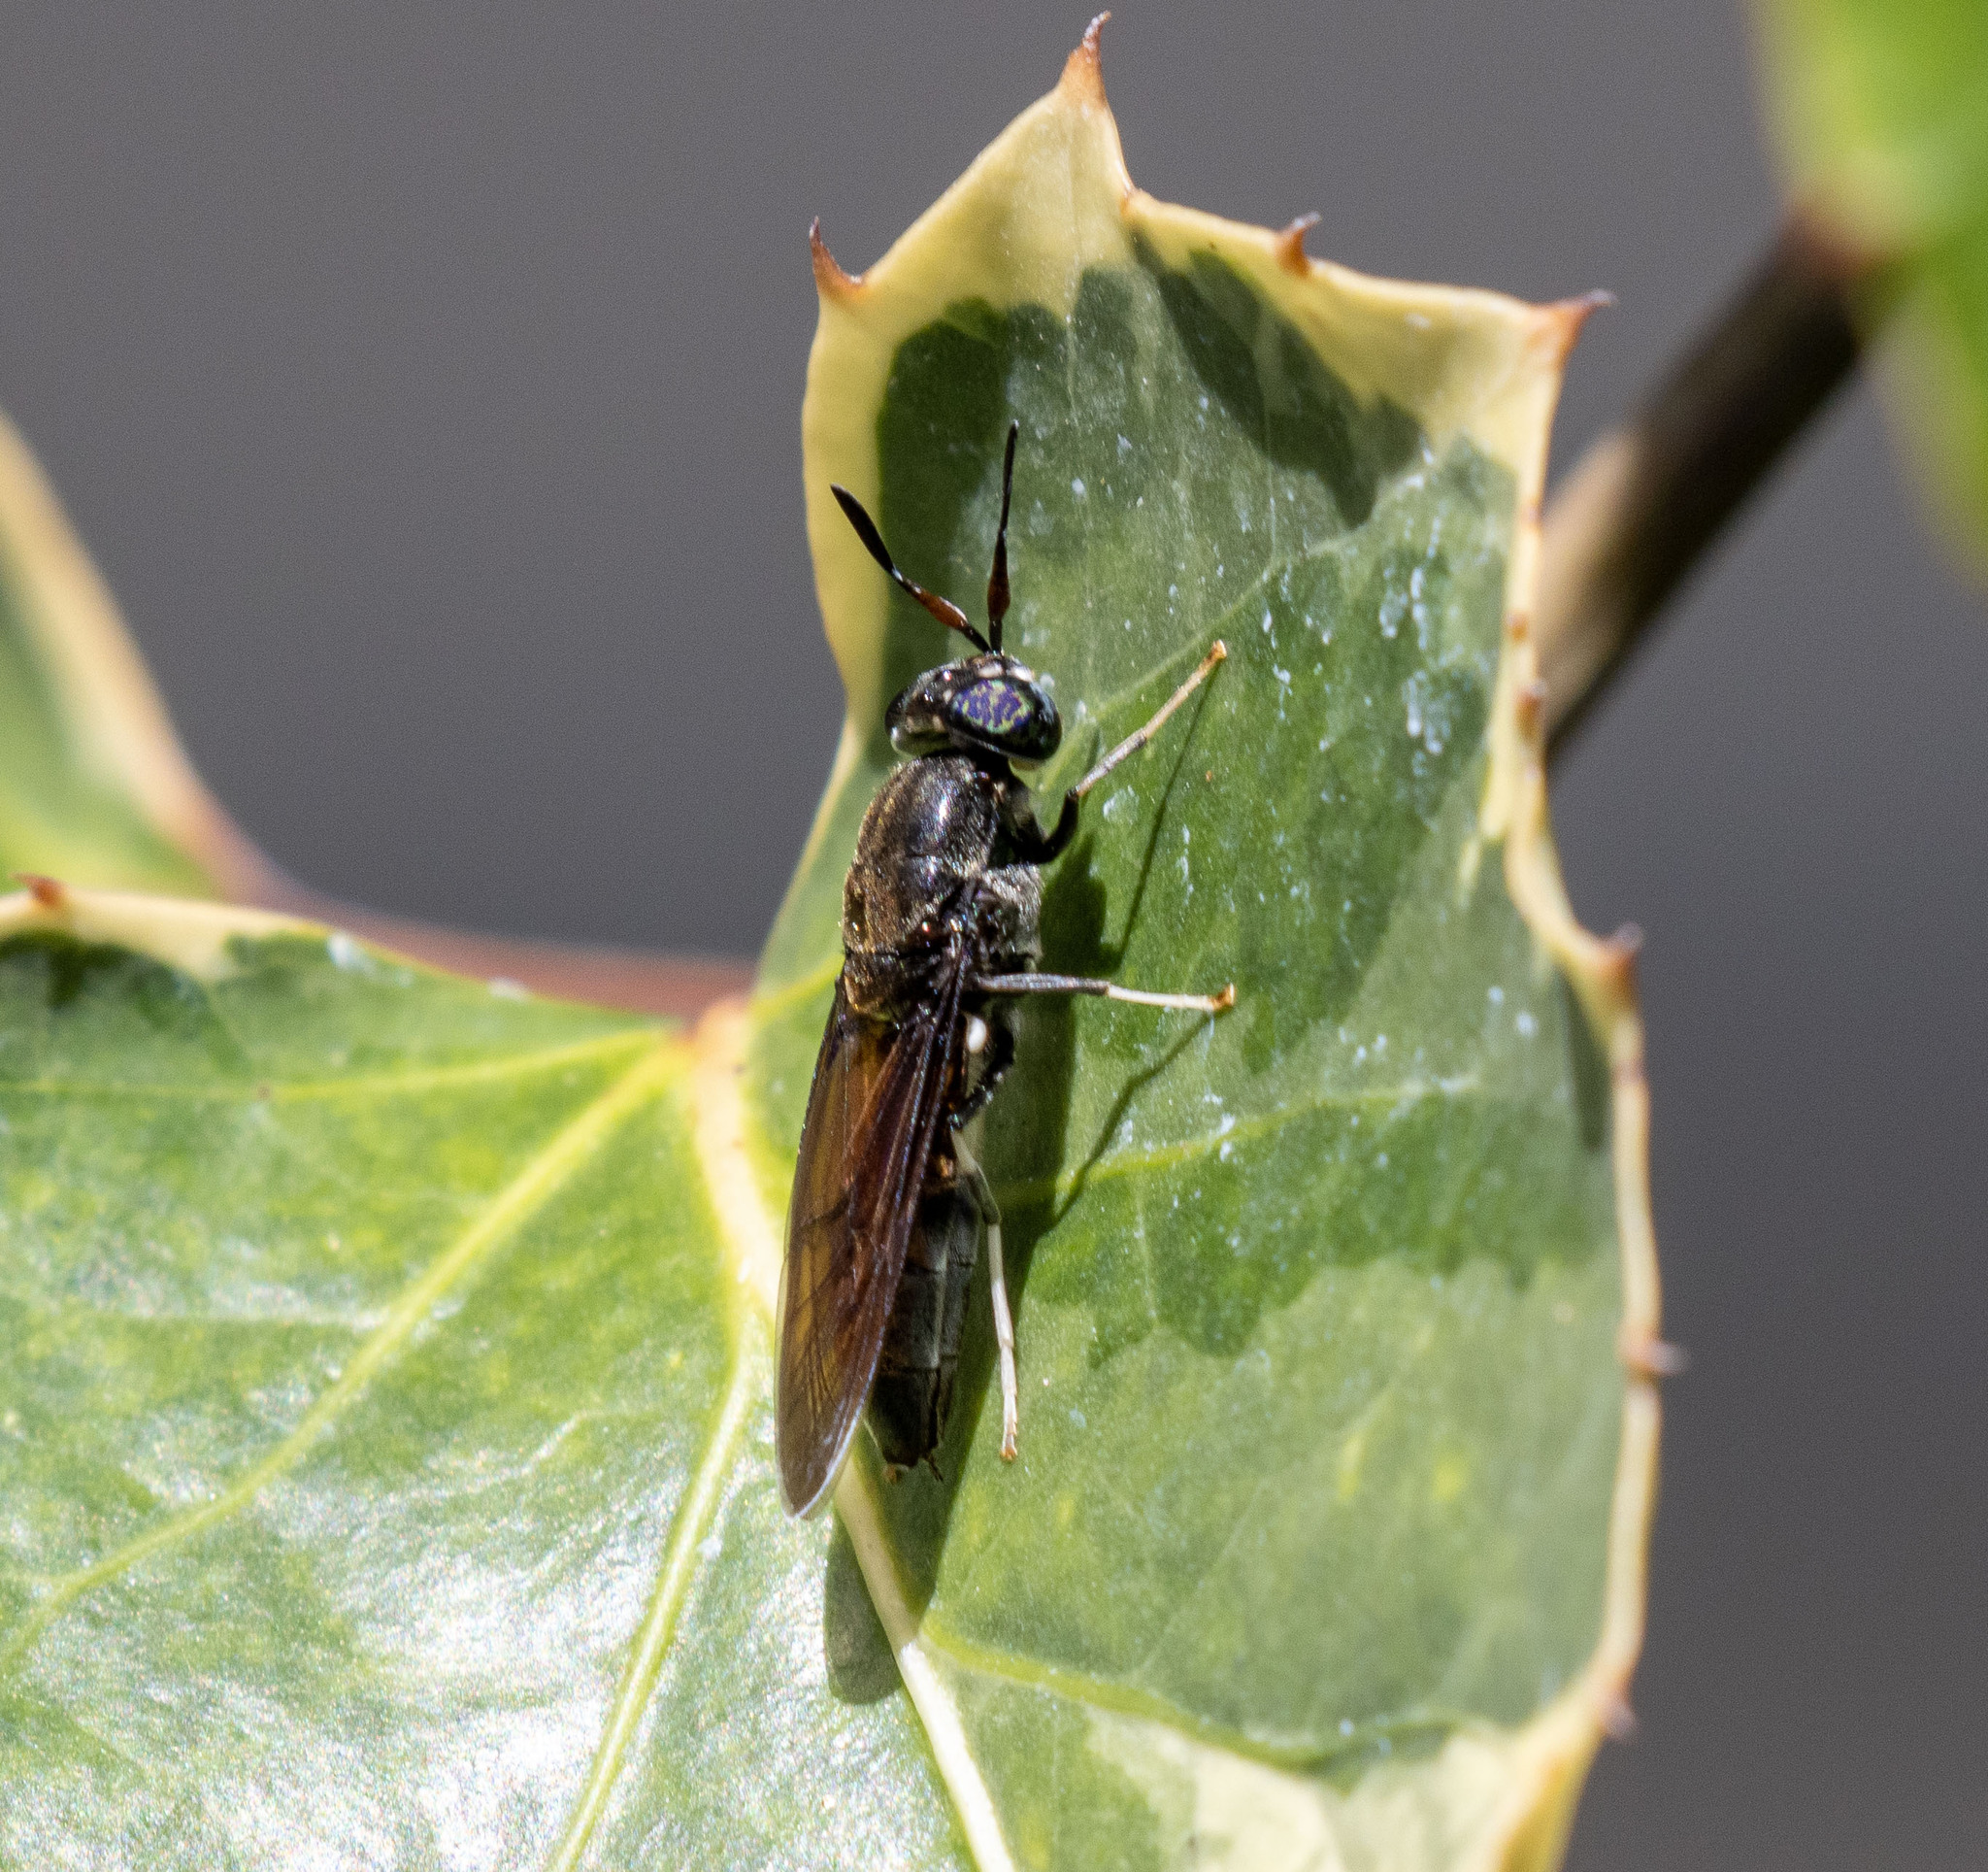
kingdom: Animalia
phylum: Arthropoda
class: Insecta
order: Diptera
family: Stratiomyidae
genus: Hermetia
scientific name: Hermetia illucens
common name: Black soldier fly
